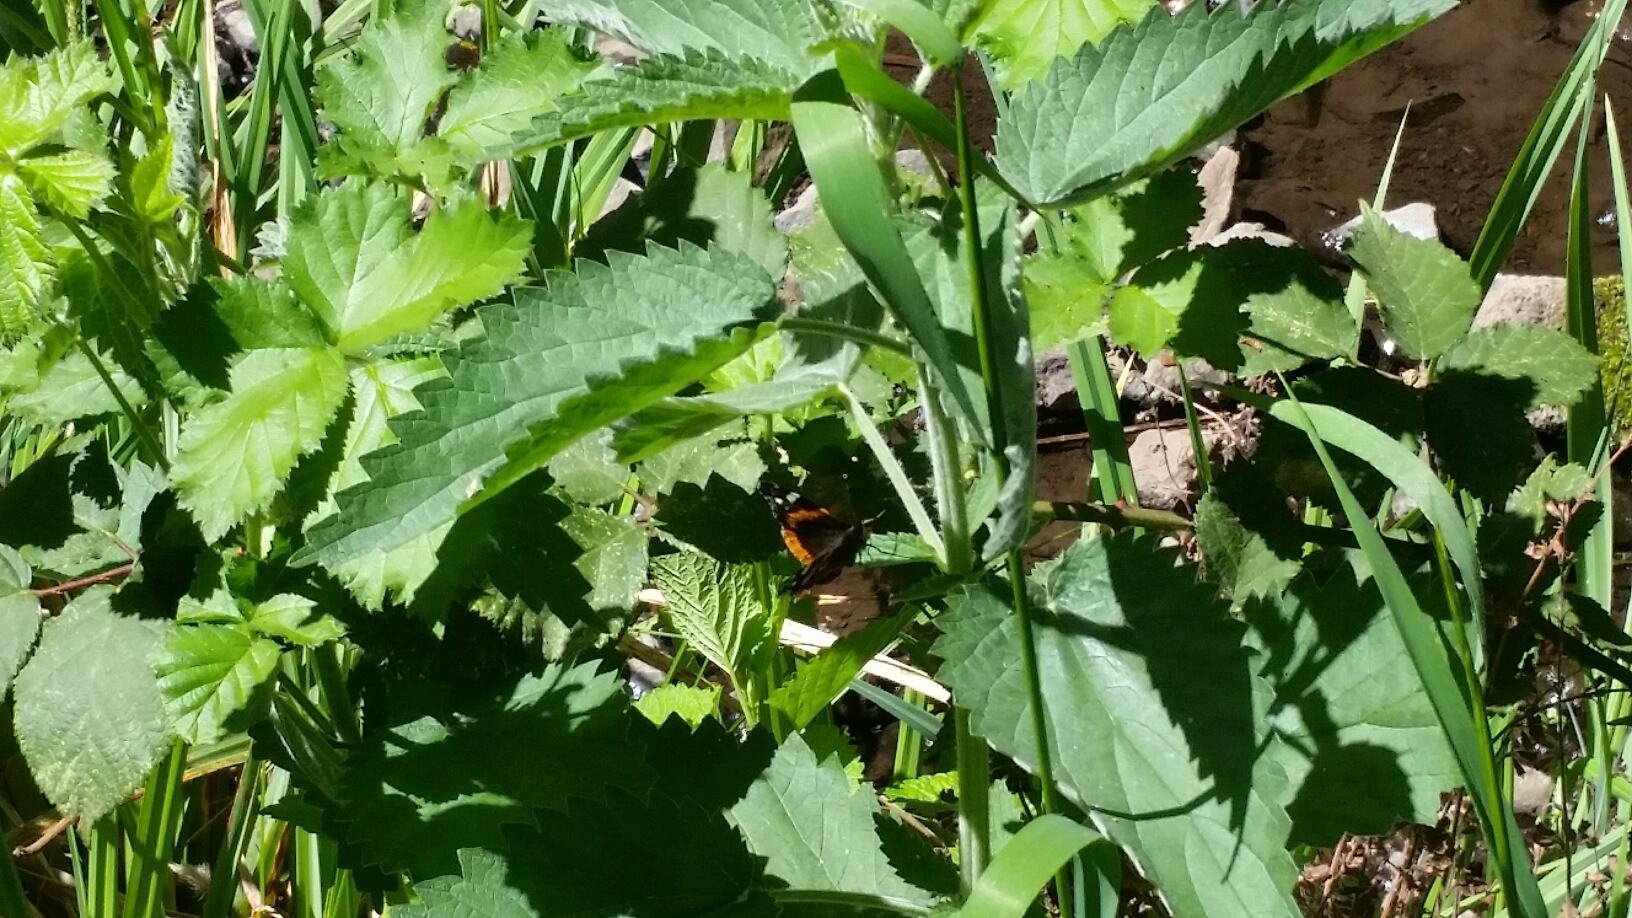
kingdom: Animalia
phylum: Arthropoda
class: Insecta
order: Lepidoptera
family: Nymphalidae
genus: Vanessa
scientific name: Vanessa atalanta
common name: Red admiral
